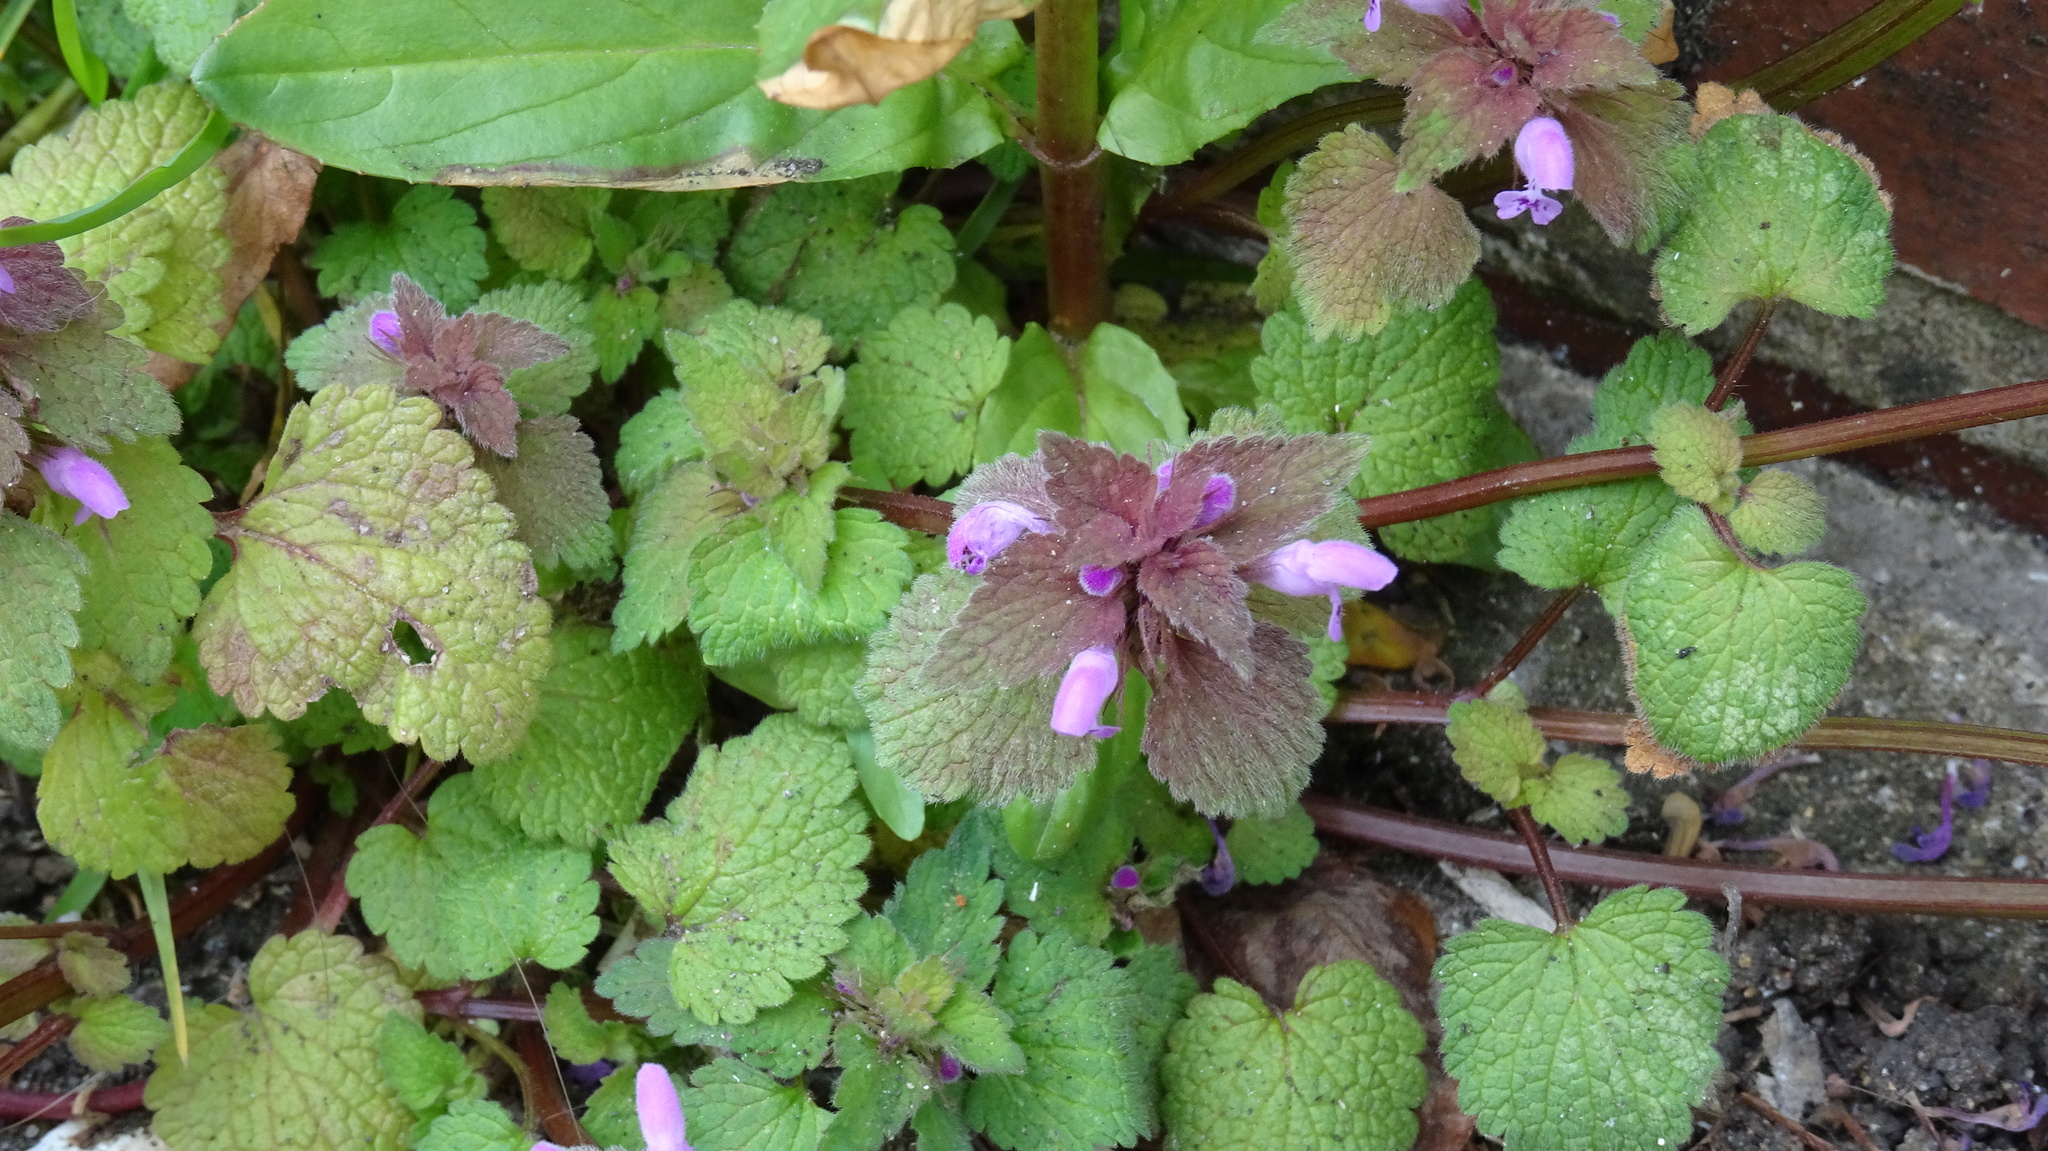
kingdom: Plantae
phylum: Tracheophyta
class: Magnoliopsida
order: Lamiales
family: Lamiaceae
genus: Lamium
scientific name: Lamium purpureum
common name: Red dead-nettle
